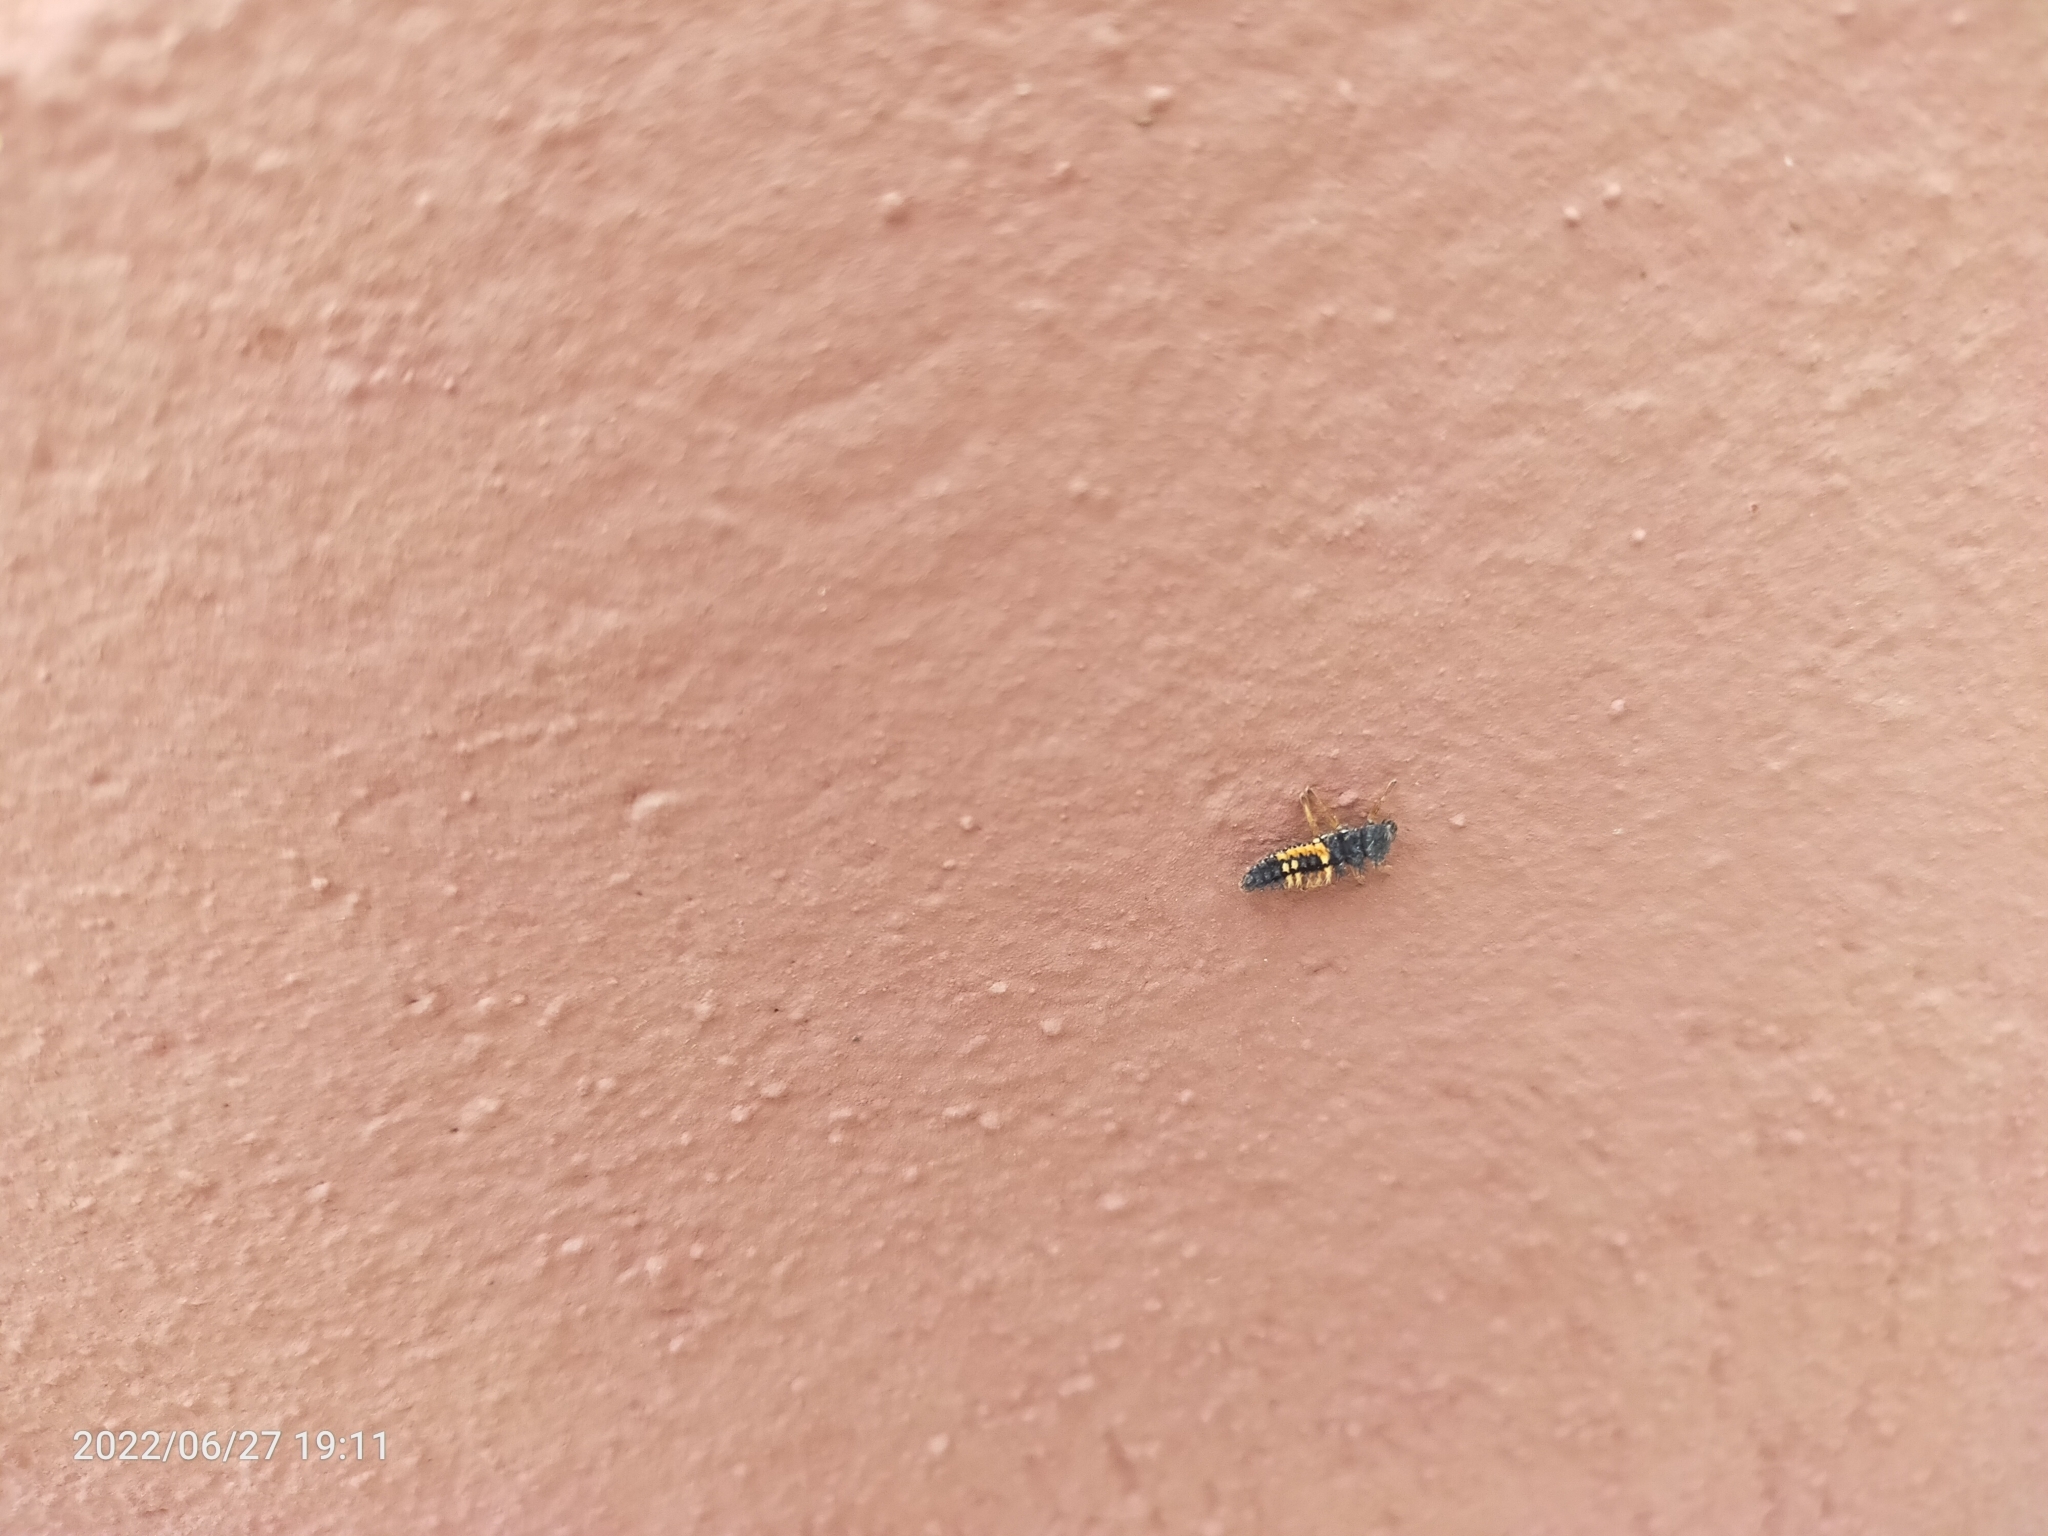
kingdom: Animalia
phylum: Arthropoda
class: Insecta
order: Coleoptera
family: Coccinellidae
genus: Harmonia
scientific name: Harmonia axyridis
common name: Harlequin ladybird
